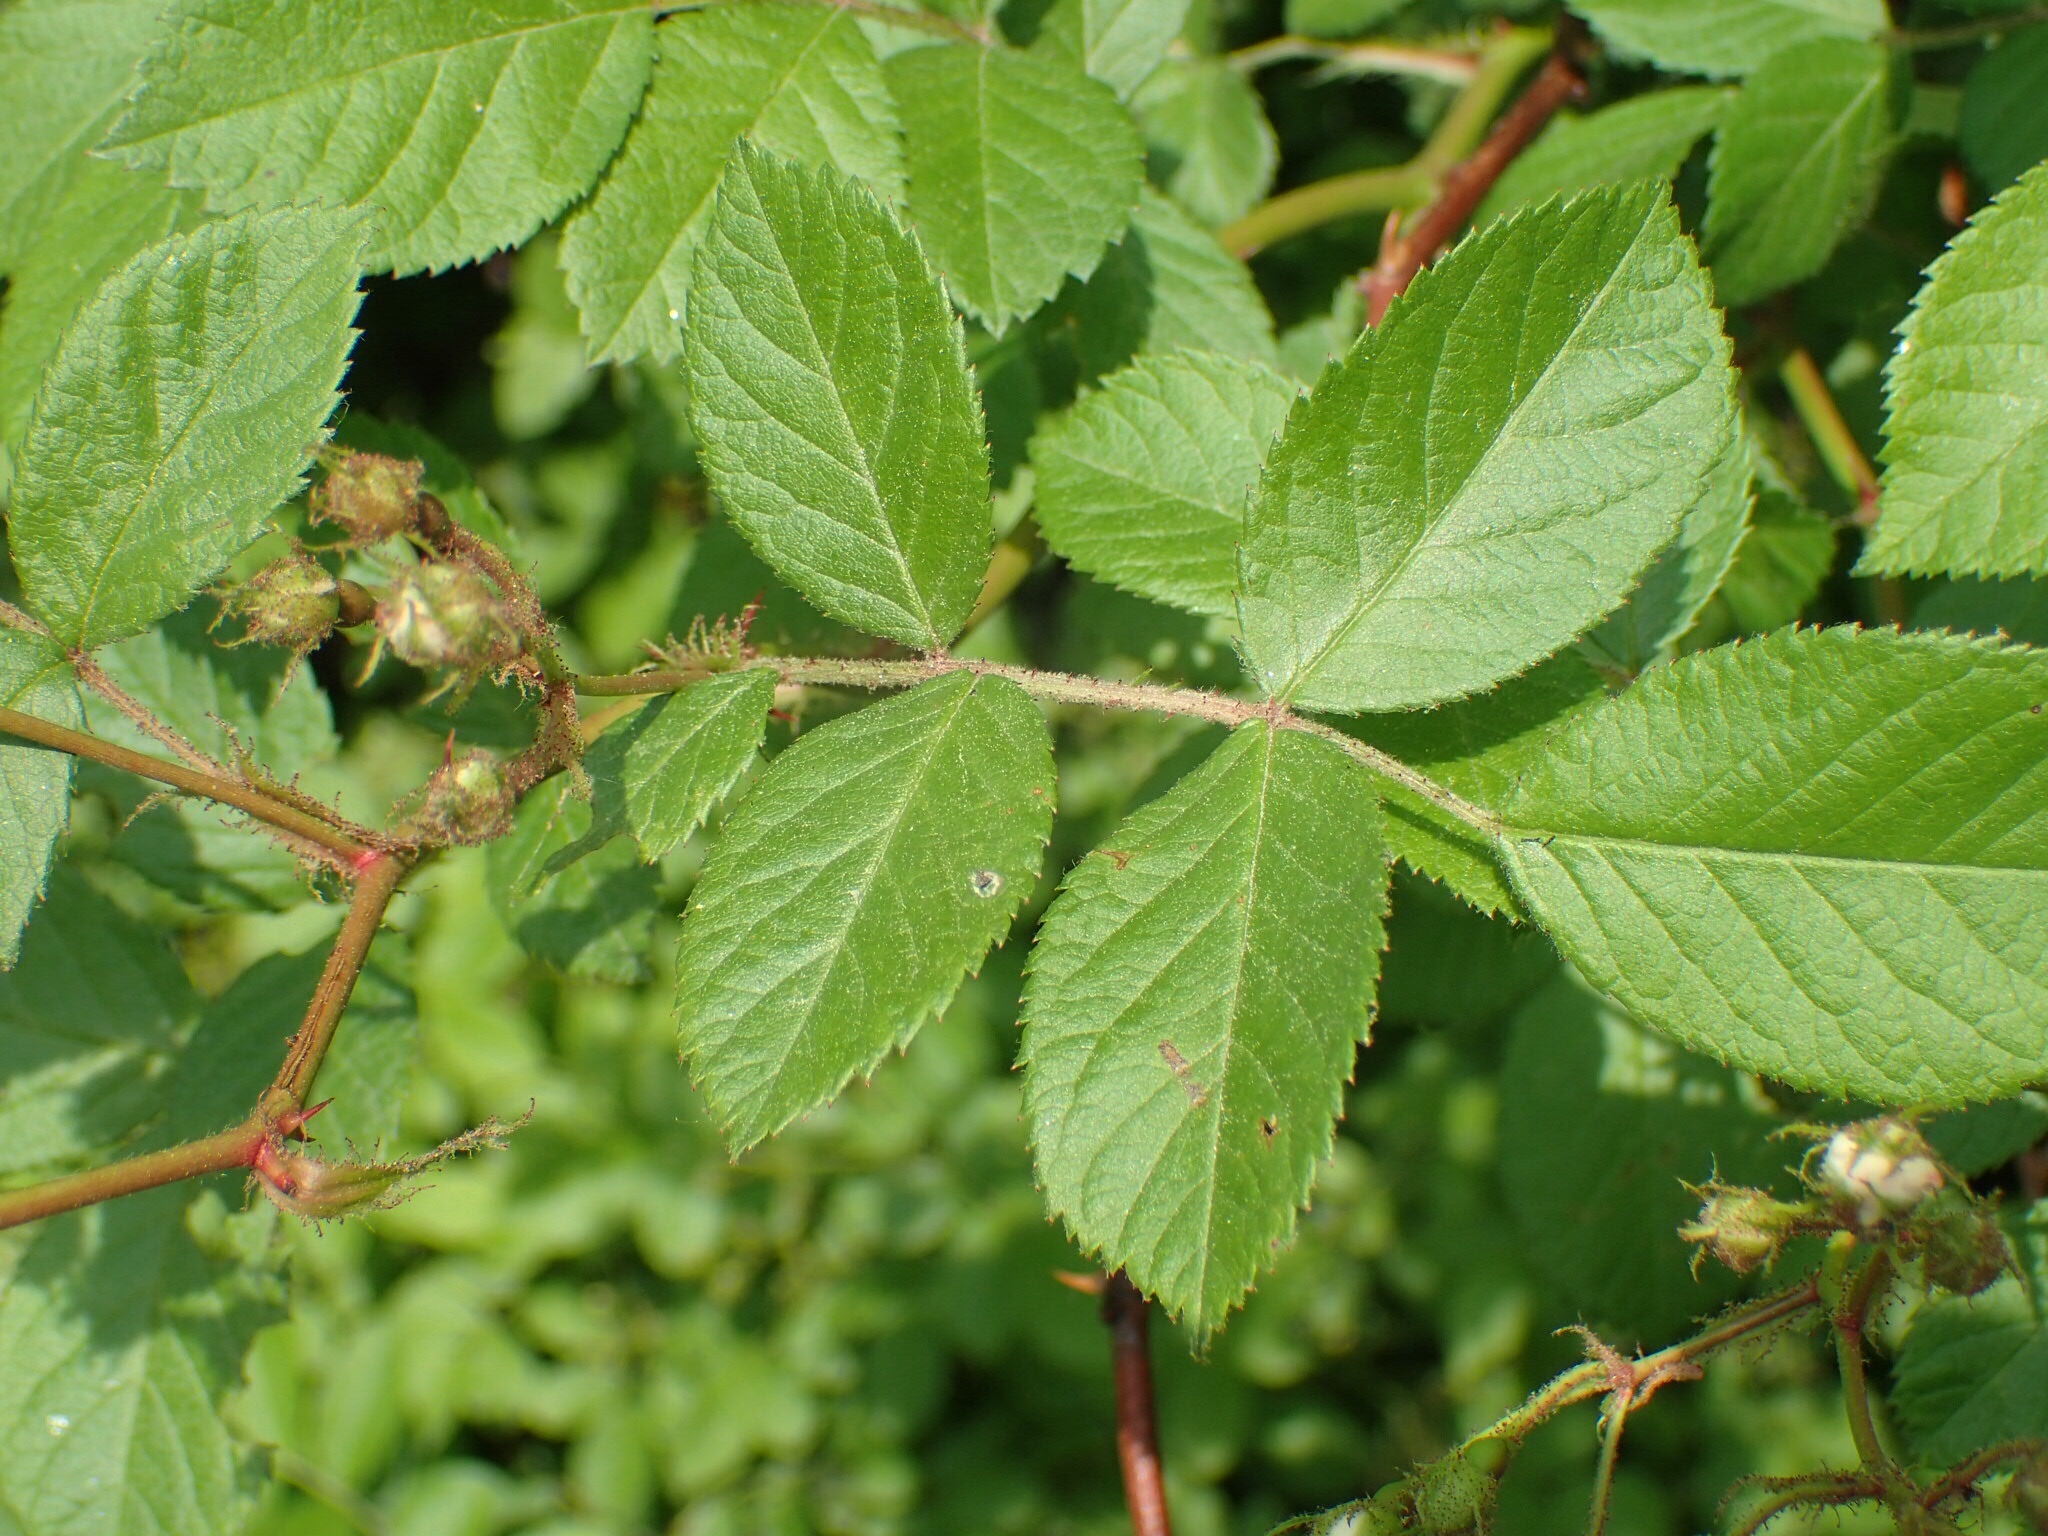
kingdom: Plantae
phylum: Tracheophyta
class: Magnoliopsida
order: Rosales
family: Rosaceae
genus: Rosa
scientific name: Rosa multiflora
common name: Multiflora rose
